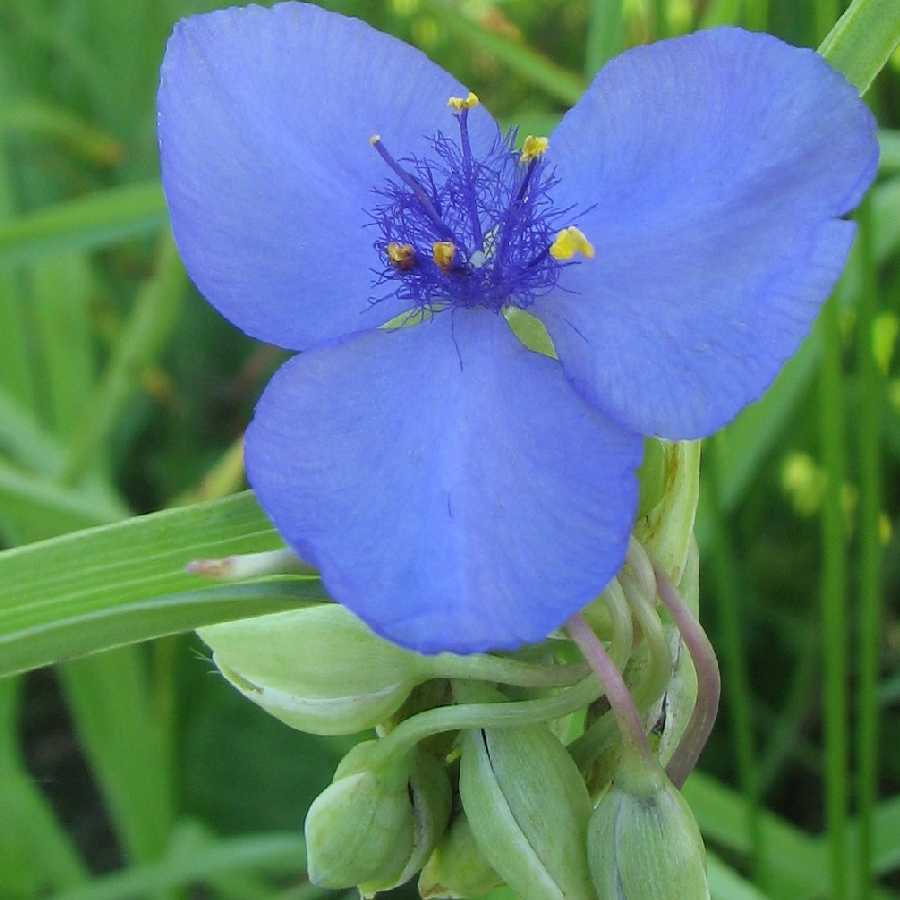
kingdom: Plantae
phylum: Tracheophyta
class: Liliopsida
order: Commelinales
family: Commelinaceae
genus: Tradescantia
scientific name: Tradescantia ohiensis
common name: Ohio spiderwort
